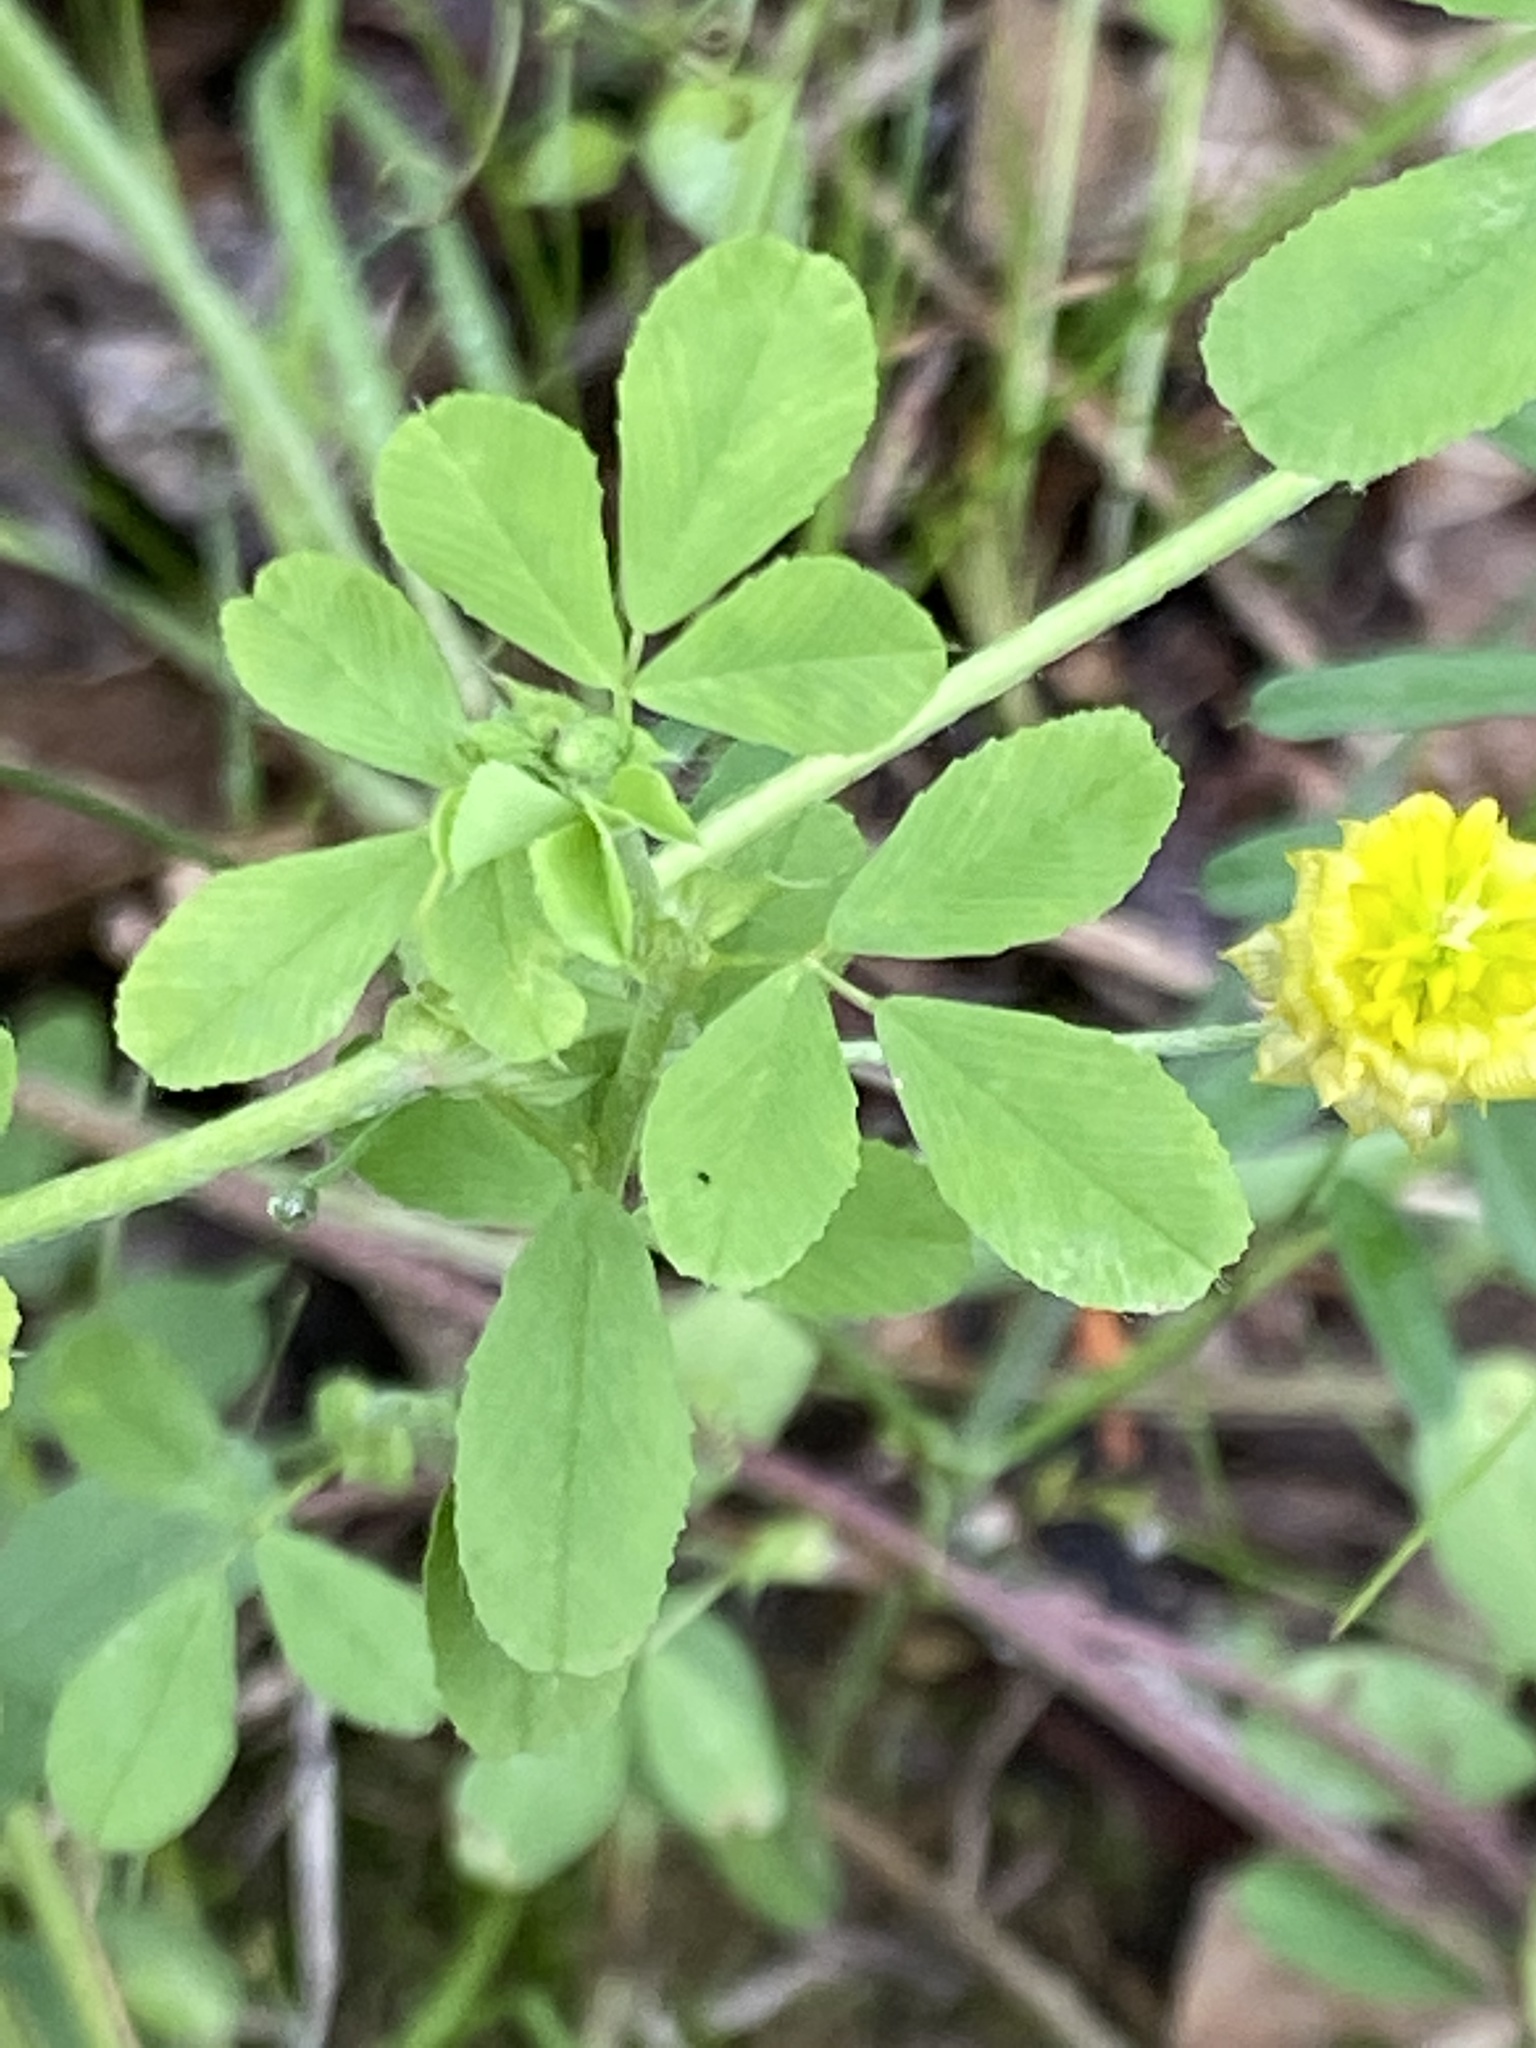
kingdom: Plantae
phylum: Tracheophyta
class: Magnoliopsida
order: Fabales
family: Fabaceae
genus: Trifolium
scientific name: Trifolium campestre
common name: Field clover
